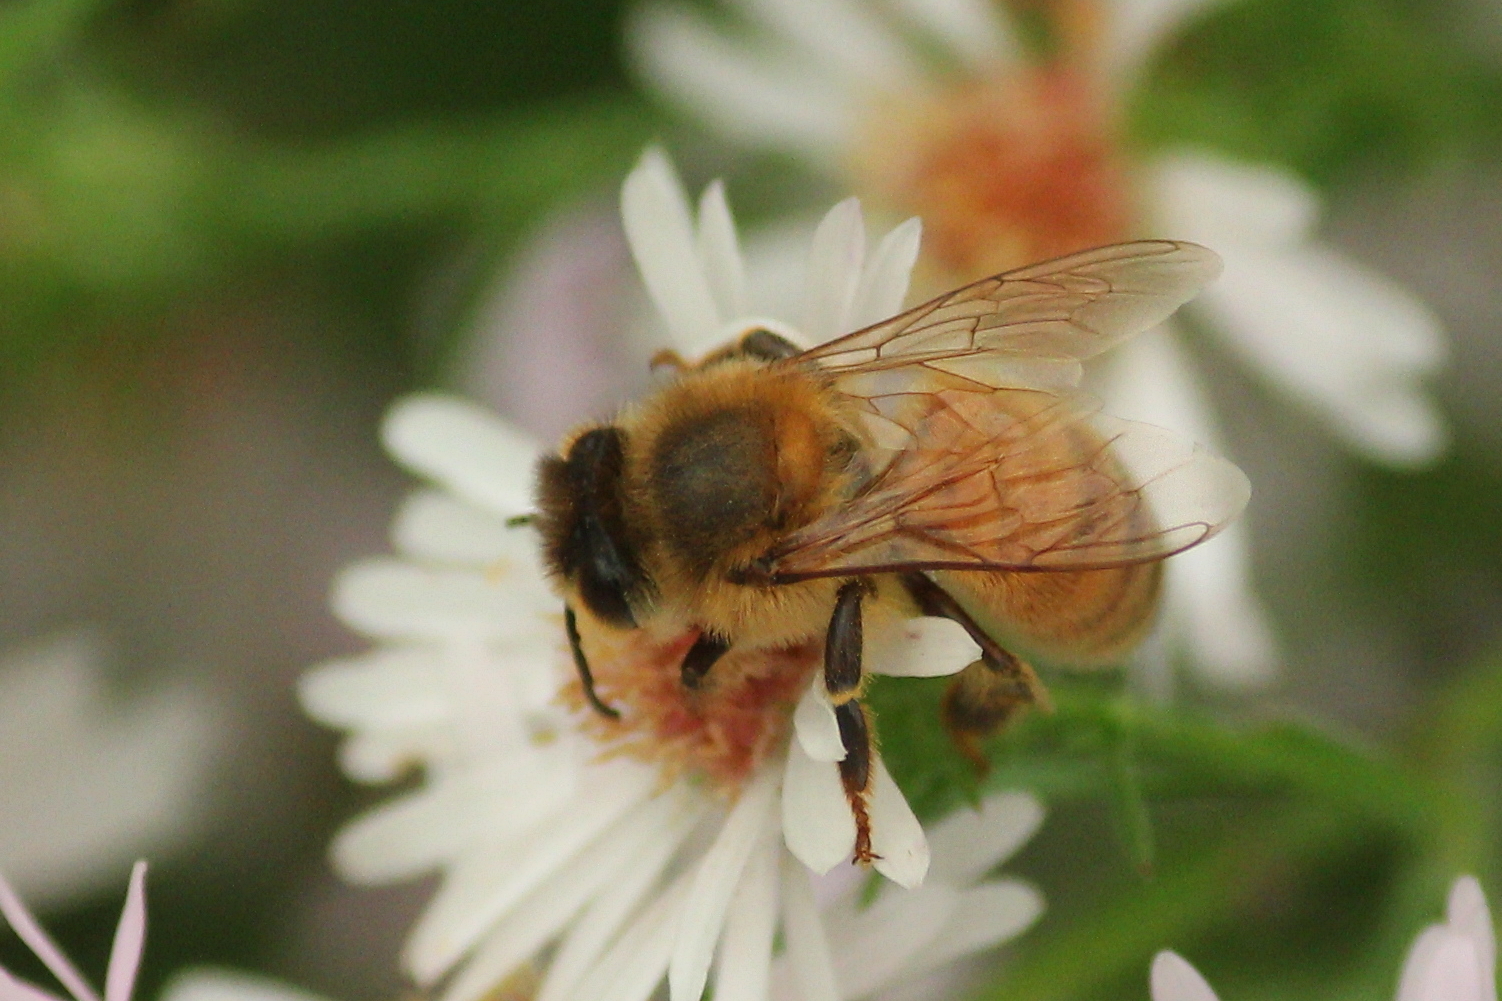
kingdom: Animalia
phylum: Arthropoda
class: Insecta
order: Hymenoptera
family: Apidae
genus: Apis
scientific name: Apis mellifera
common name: Honey bee
